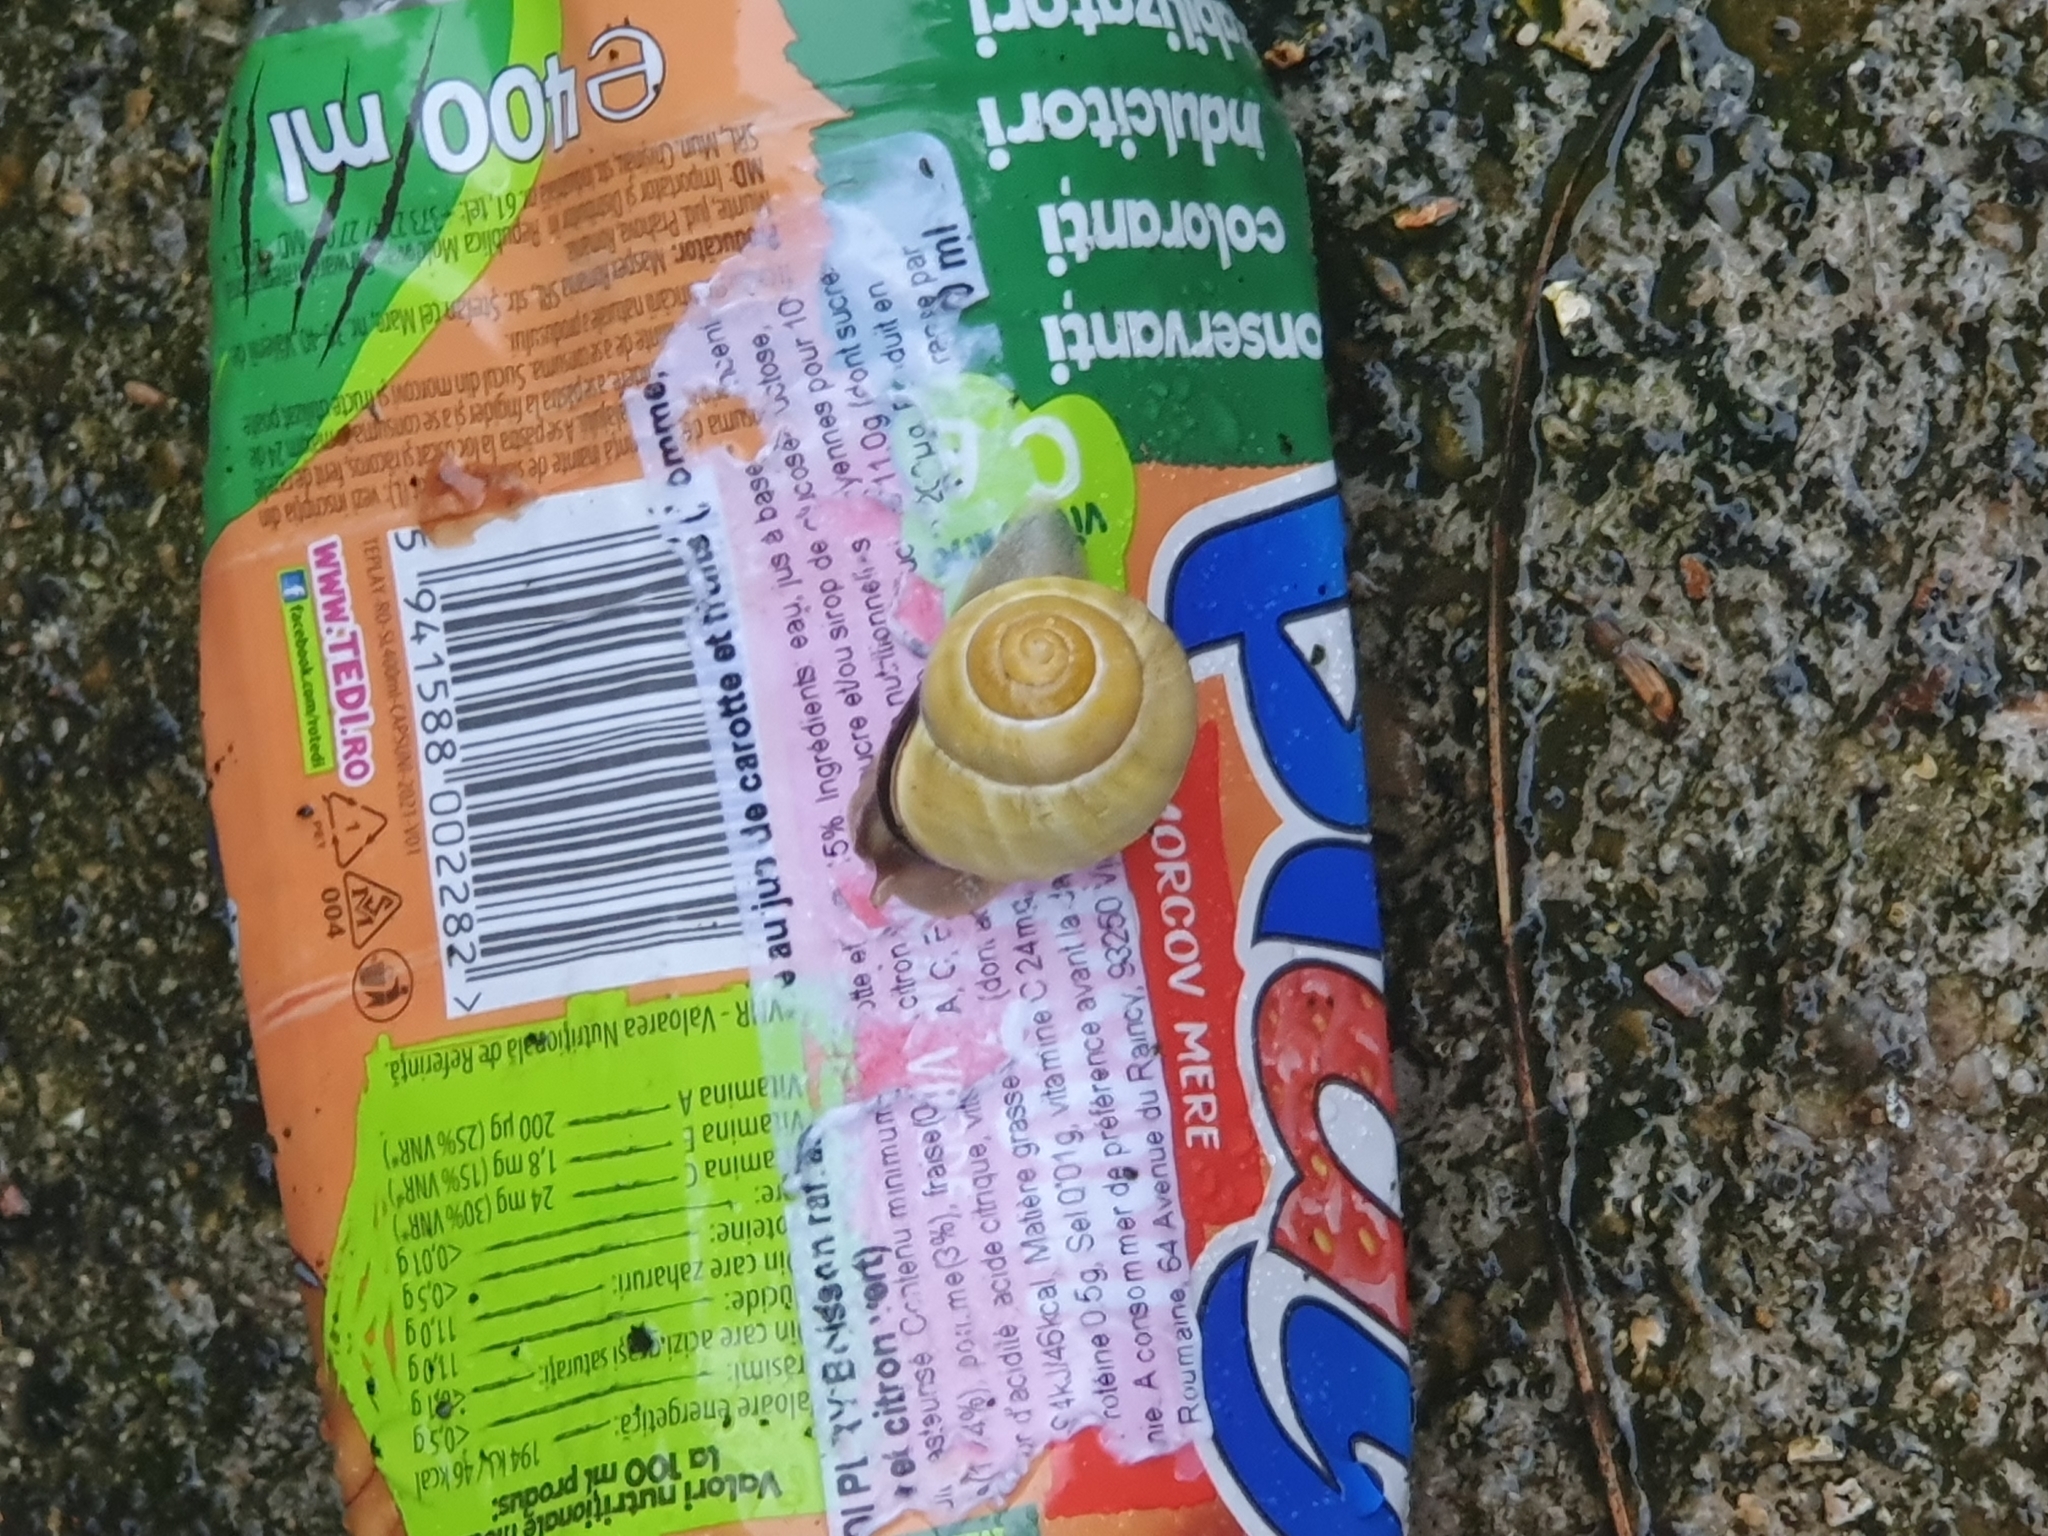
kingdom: Animalia
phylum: Mollusca
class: Gastropoda
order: Stylommatophora
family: Helicidae
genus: Cepaea
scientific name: Cepaea nemoralis
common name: Grovesnail
